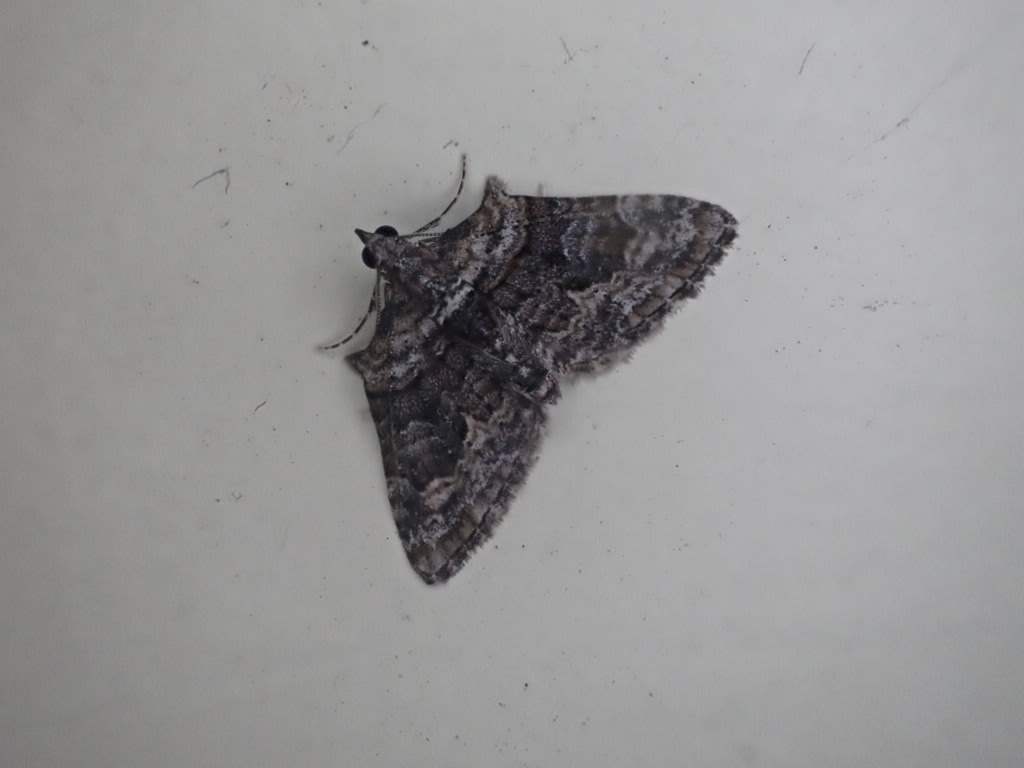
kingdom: Animalia
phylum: Arthropoda
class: Insecta
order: Lepidoptera
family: Geometridae
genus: Phrissogonus
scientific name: Phrissogonus laticostata
